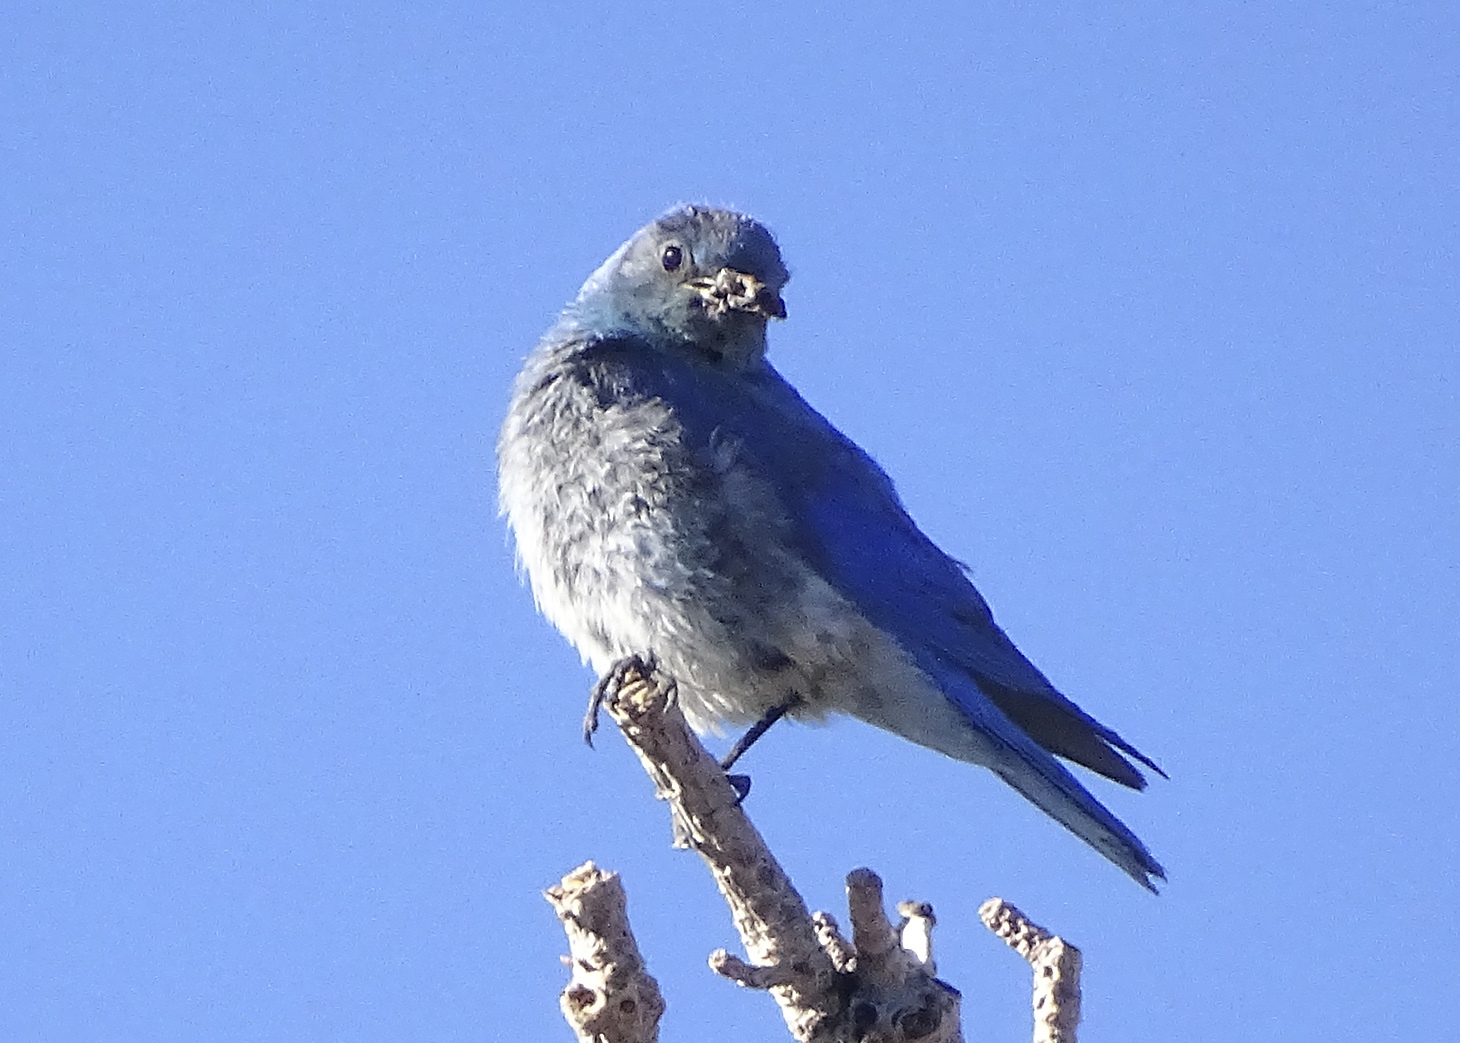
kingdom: Animalia
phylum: Chordata
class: Aves
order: Passeriformes
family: Turdidae
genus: Sialia
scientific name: Sialia currucoides
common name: Mountain bluebird
